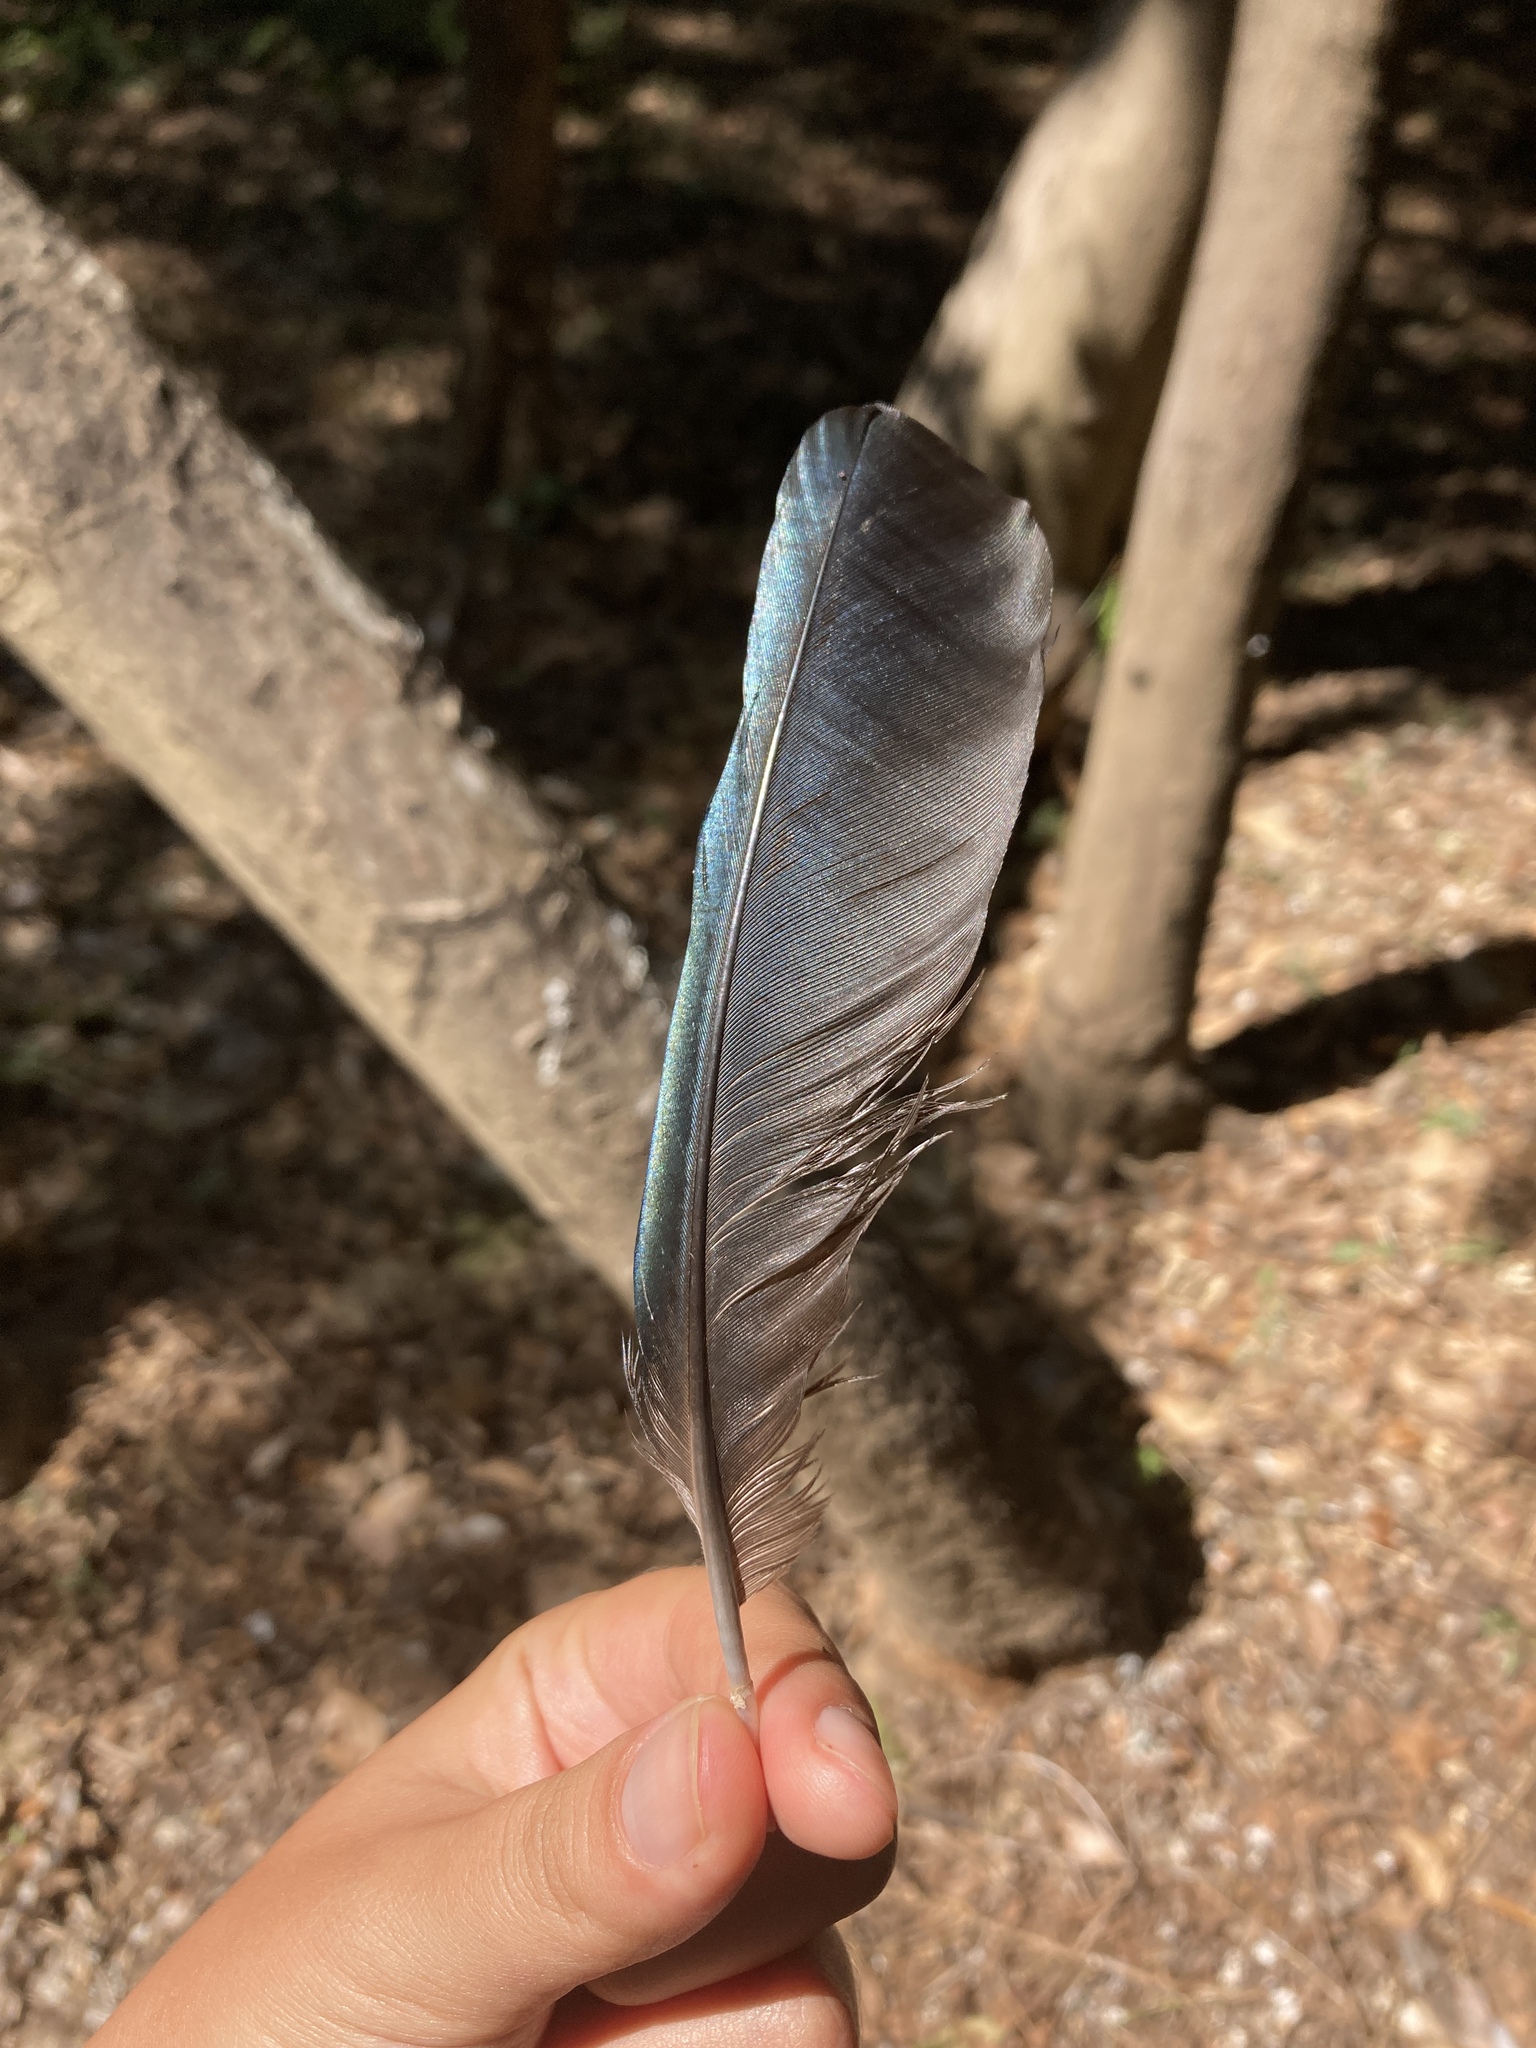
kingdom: Animalia
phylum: Chordata
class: Aves
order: Passeriformes
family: Corvidae
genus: Pica
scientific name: Pica pica
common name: Eurasian magpie
